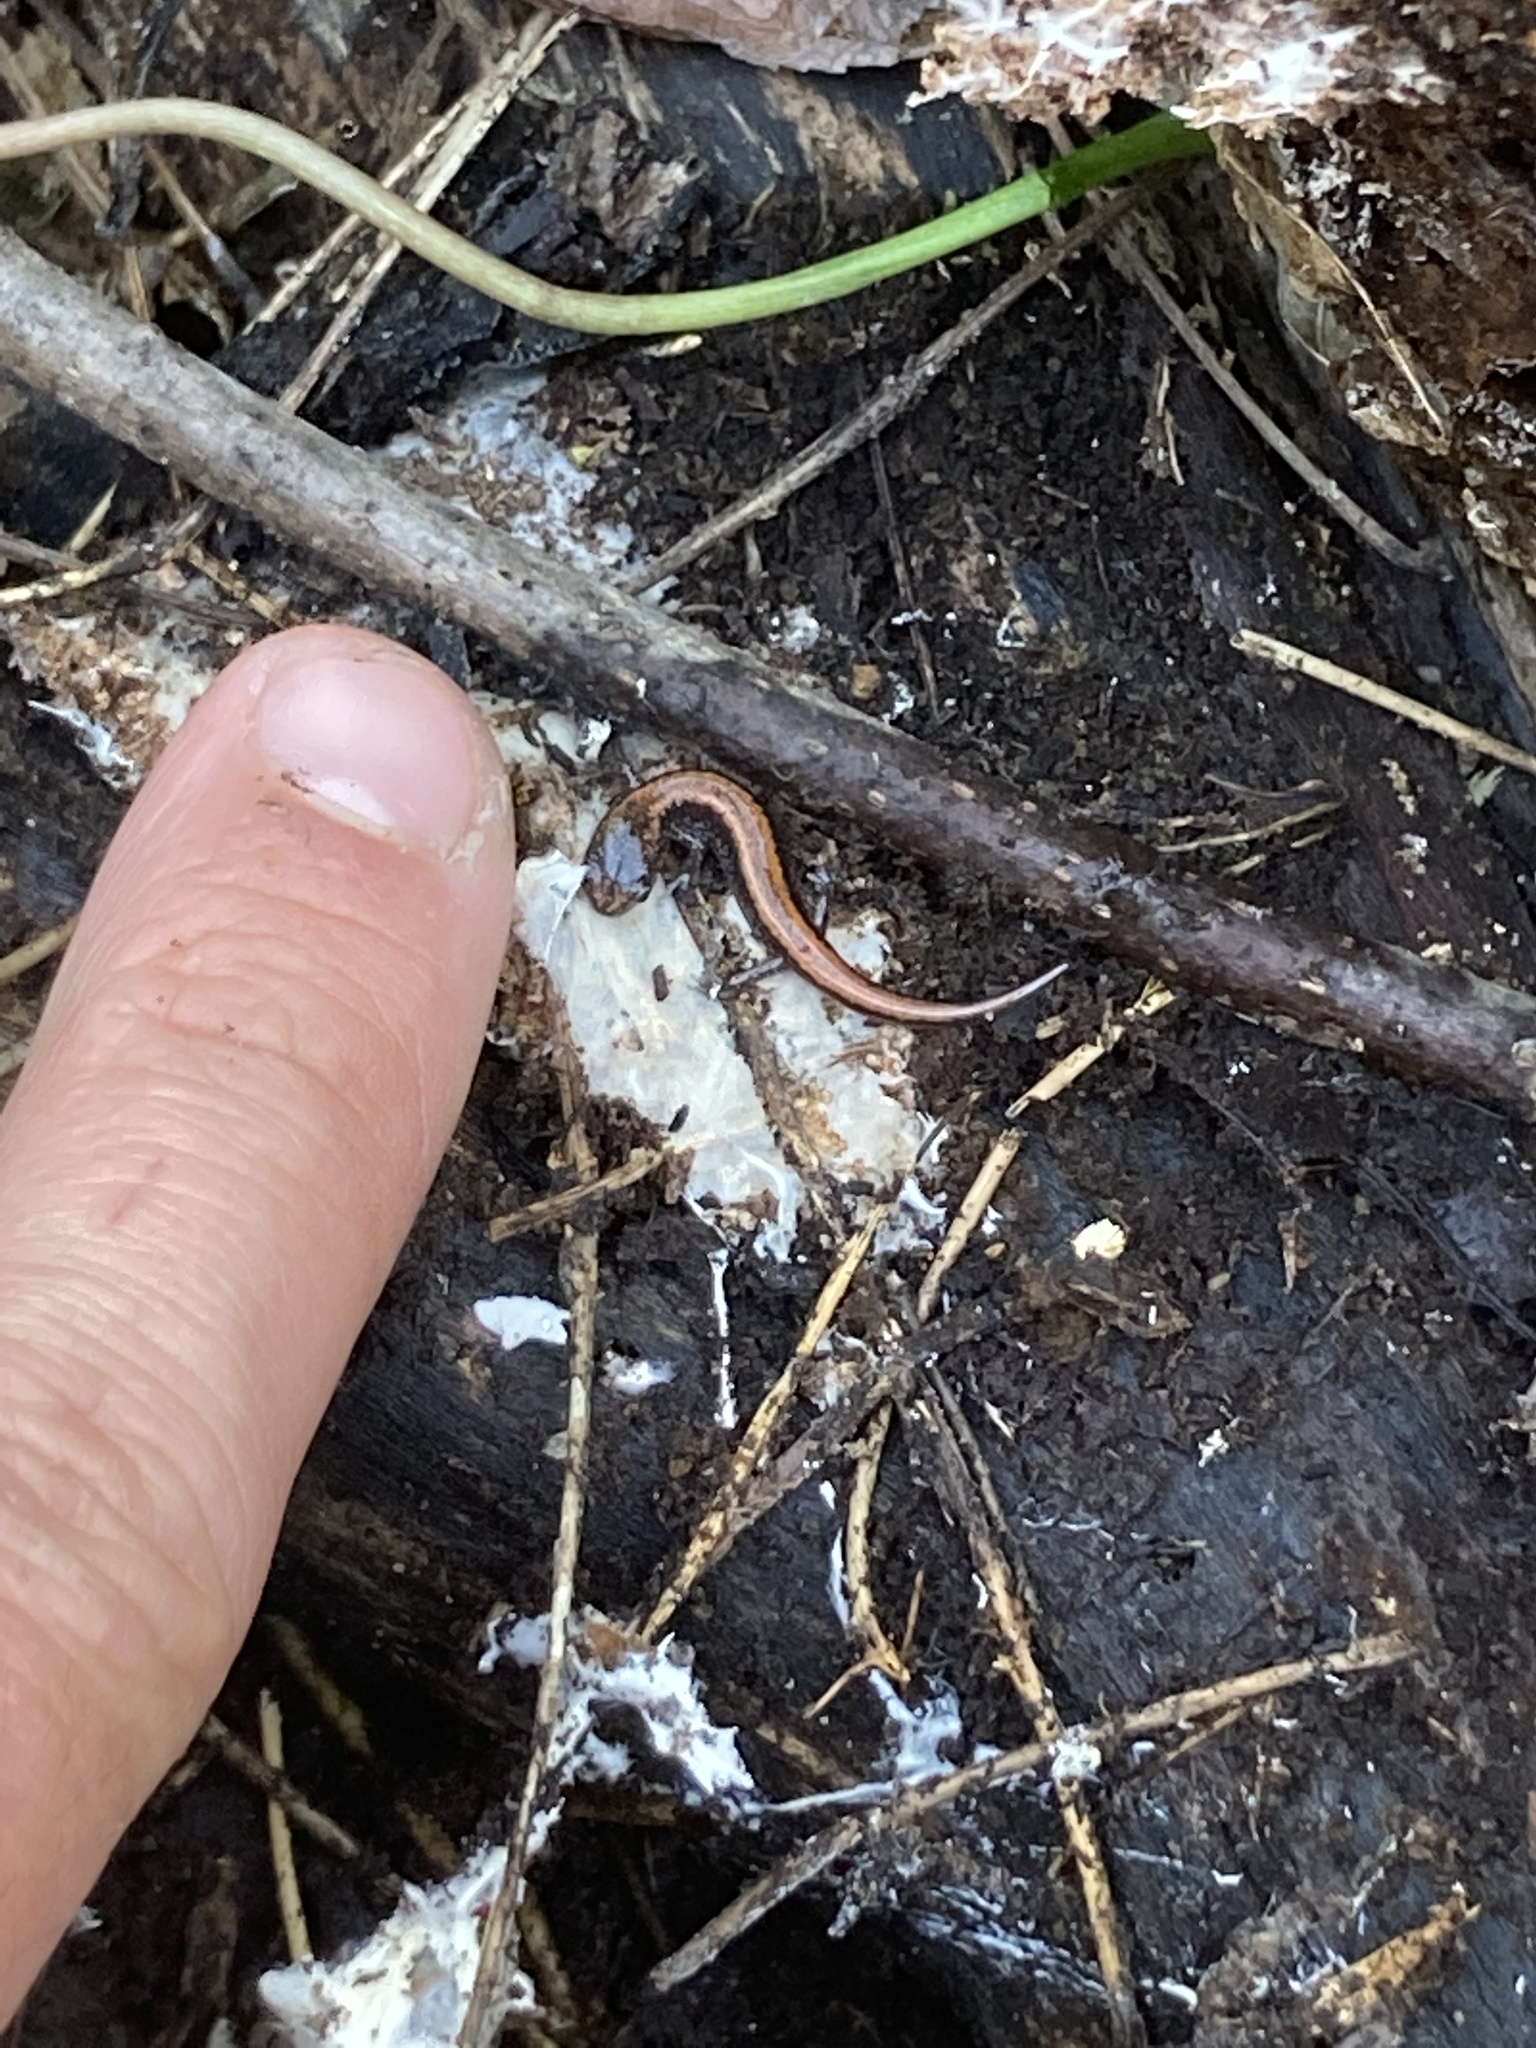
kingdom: Animalia
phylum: Chordata
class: Amphibia
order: Caudata
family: Plethodontidae
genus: Plethodon
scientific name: Plethodon cinereus
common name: Redback salamander
